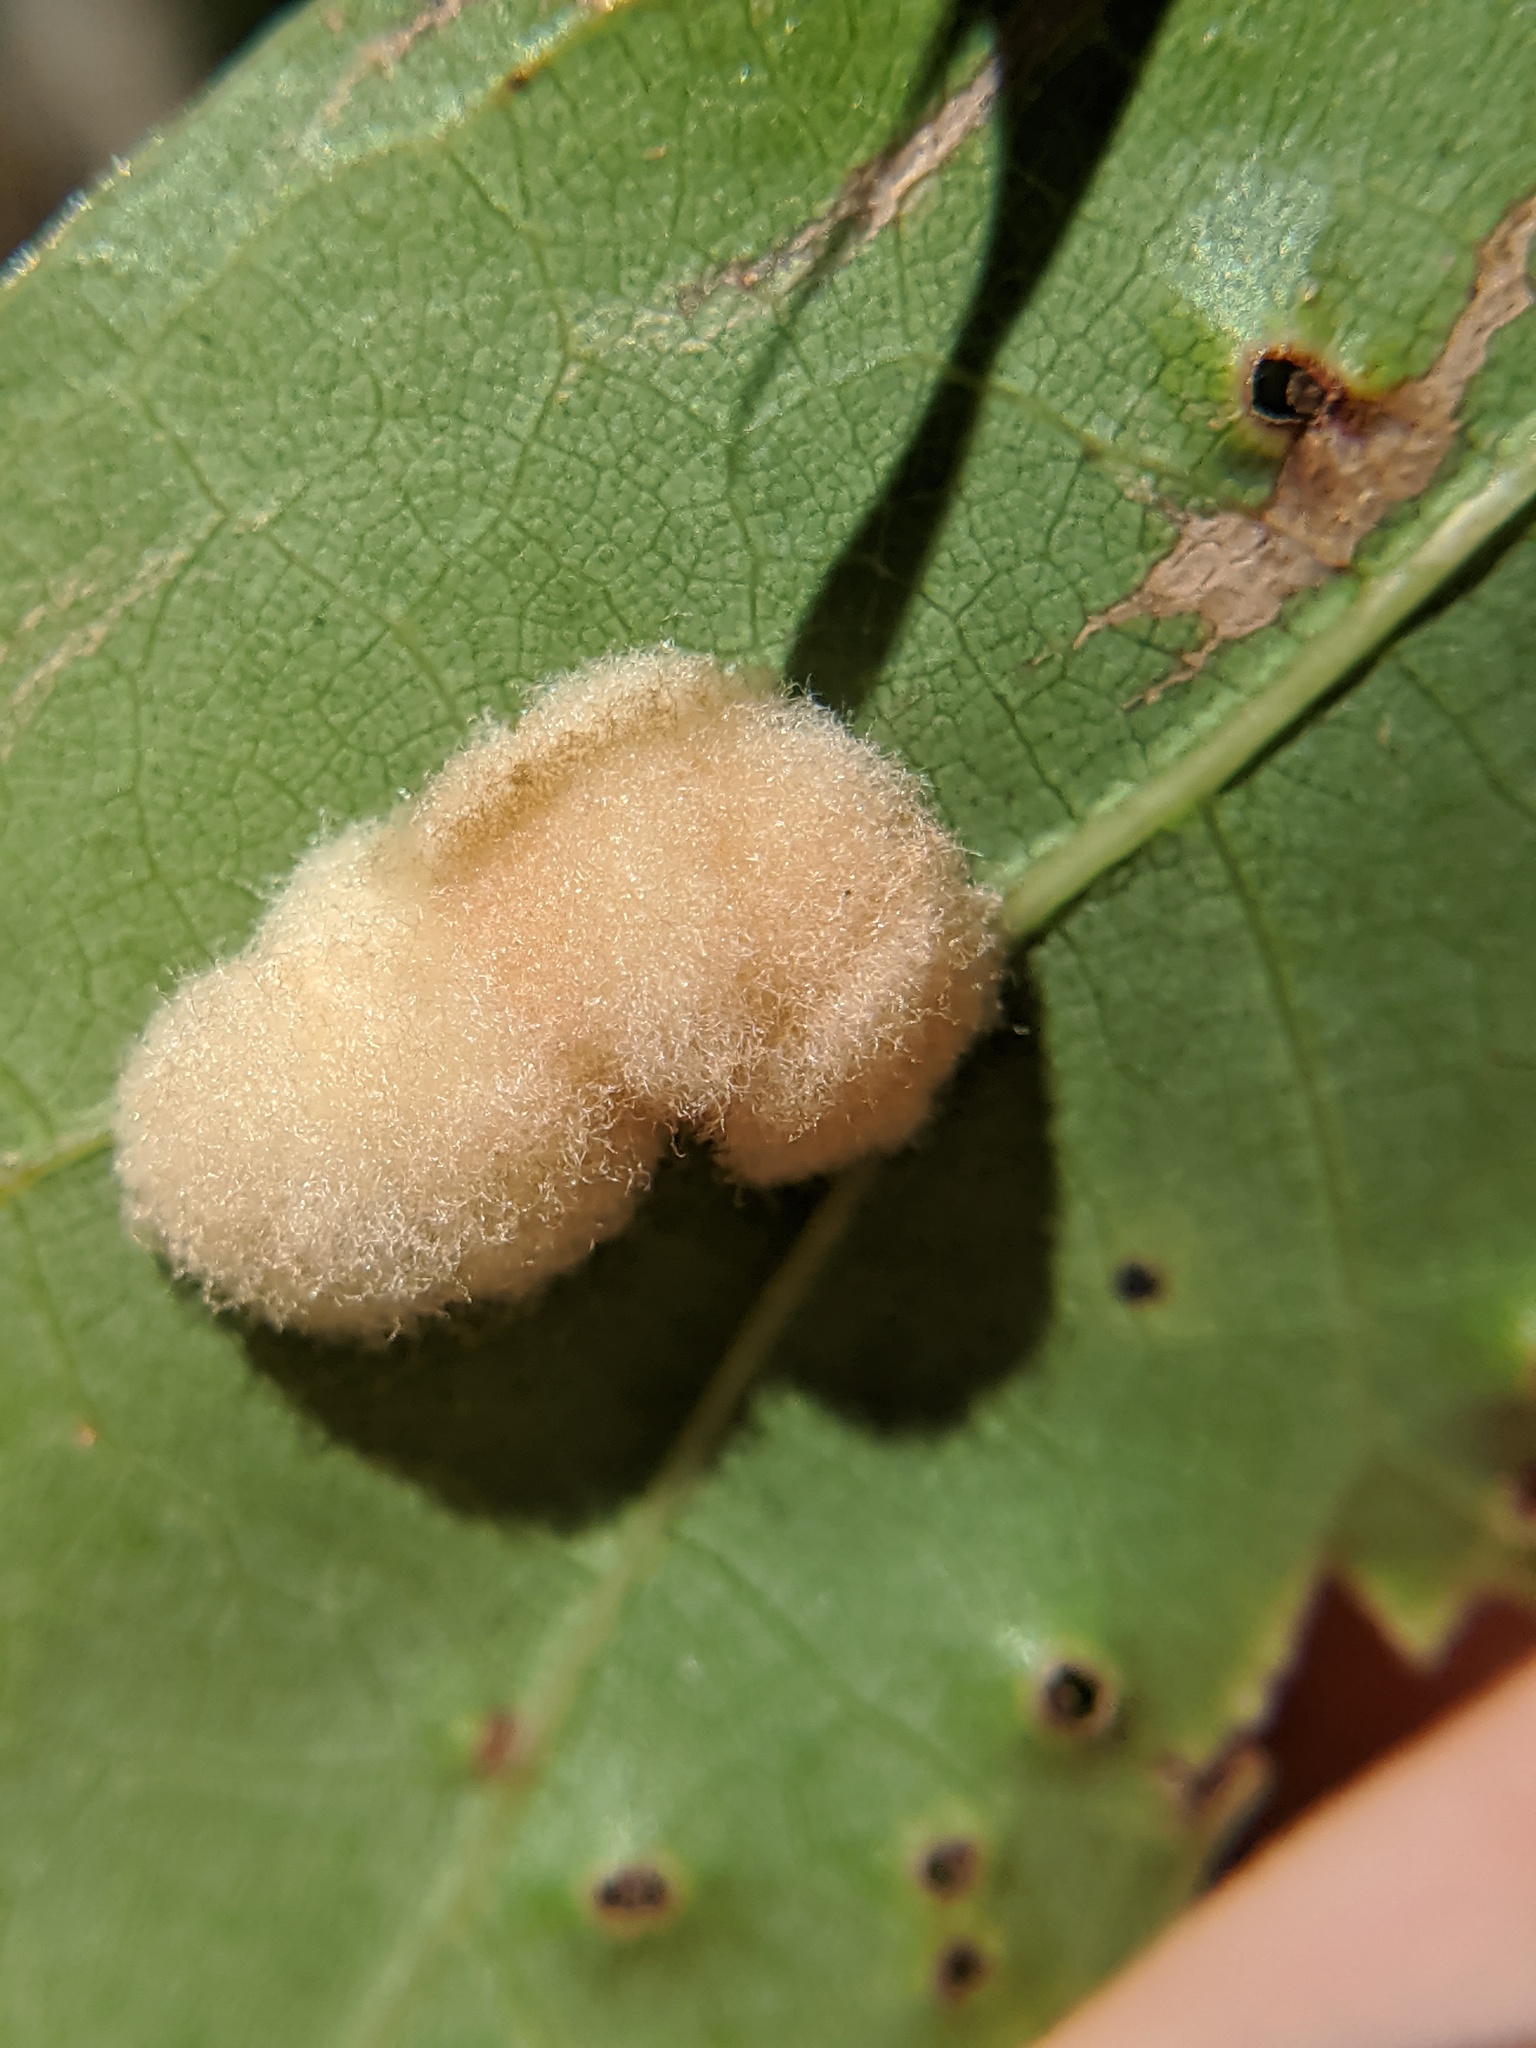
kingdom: Animalia
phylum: Arthropoda
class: Insecta
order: Hymenoptera
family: Cynipidae
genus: Callirhytis
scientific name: Callirhytis
